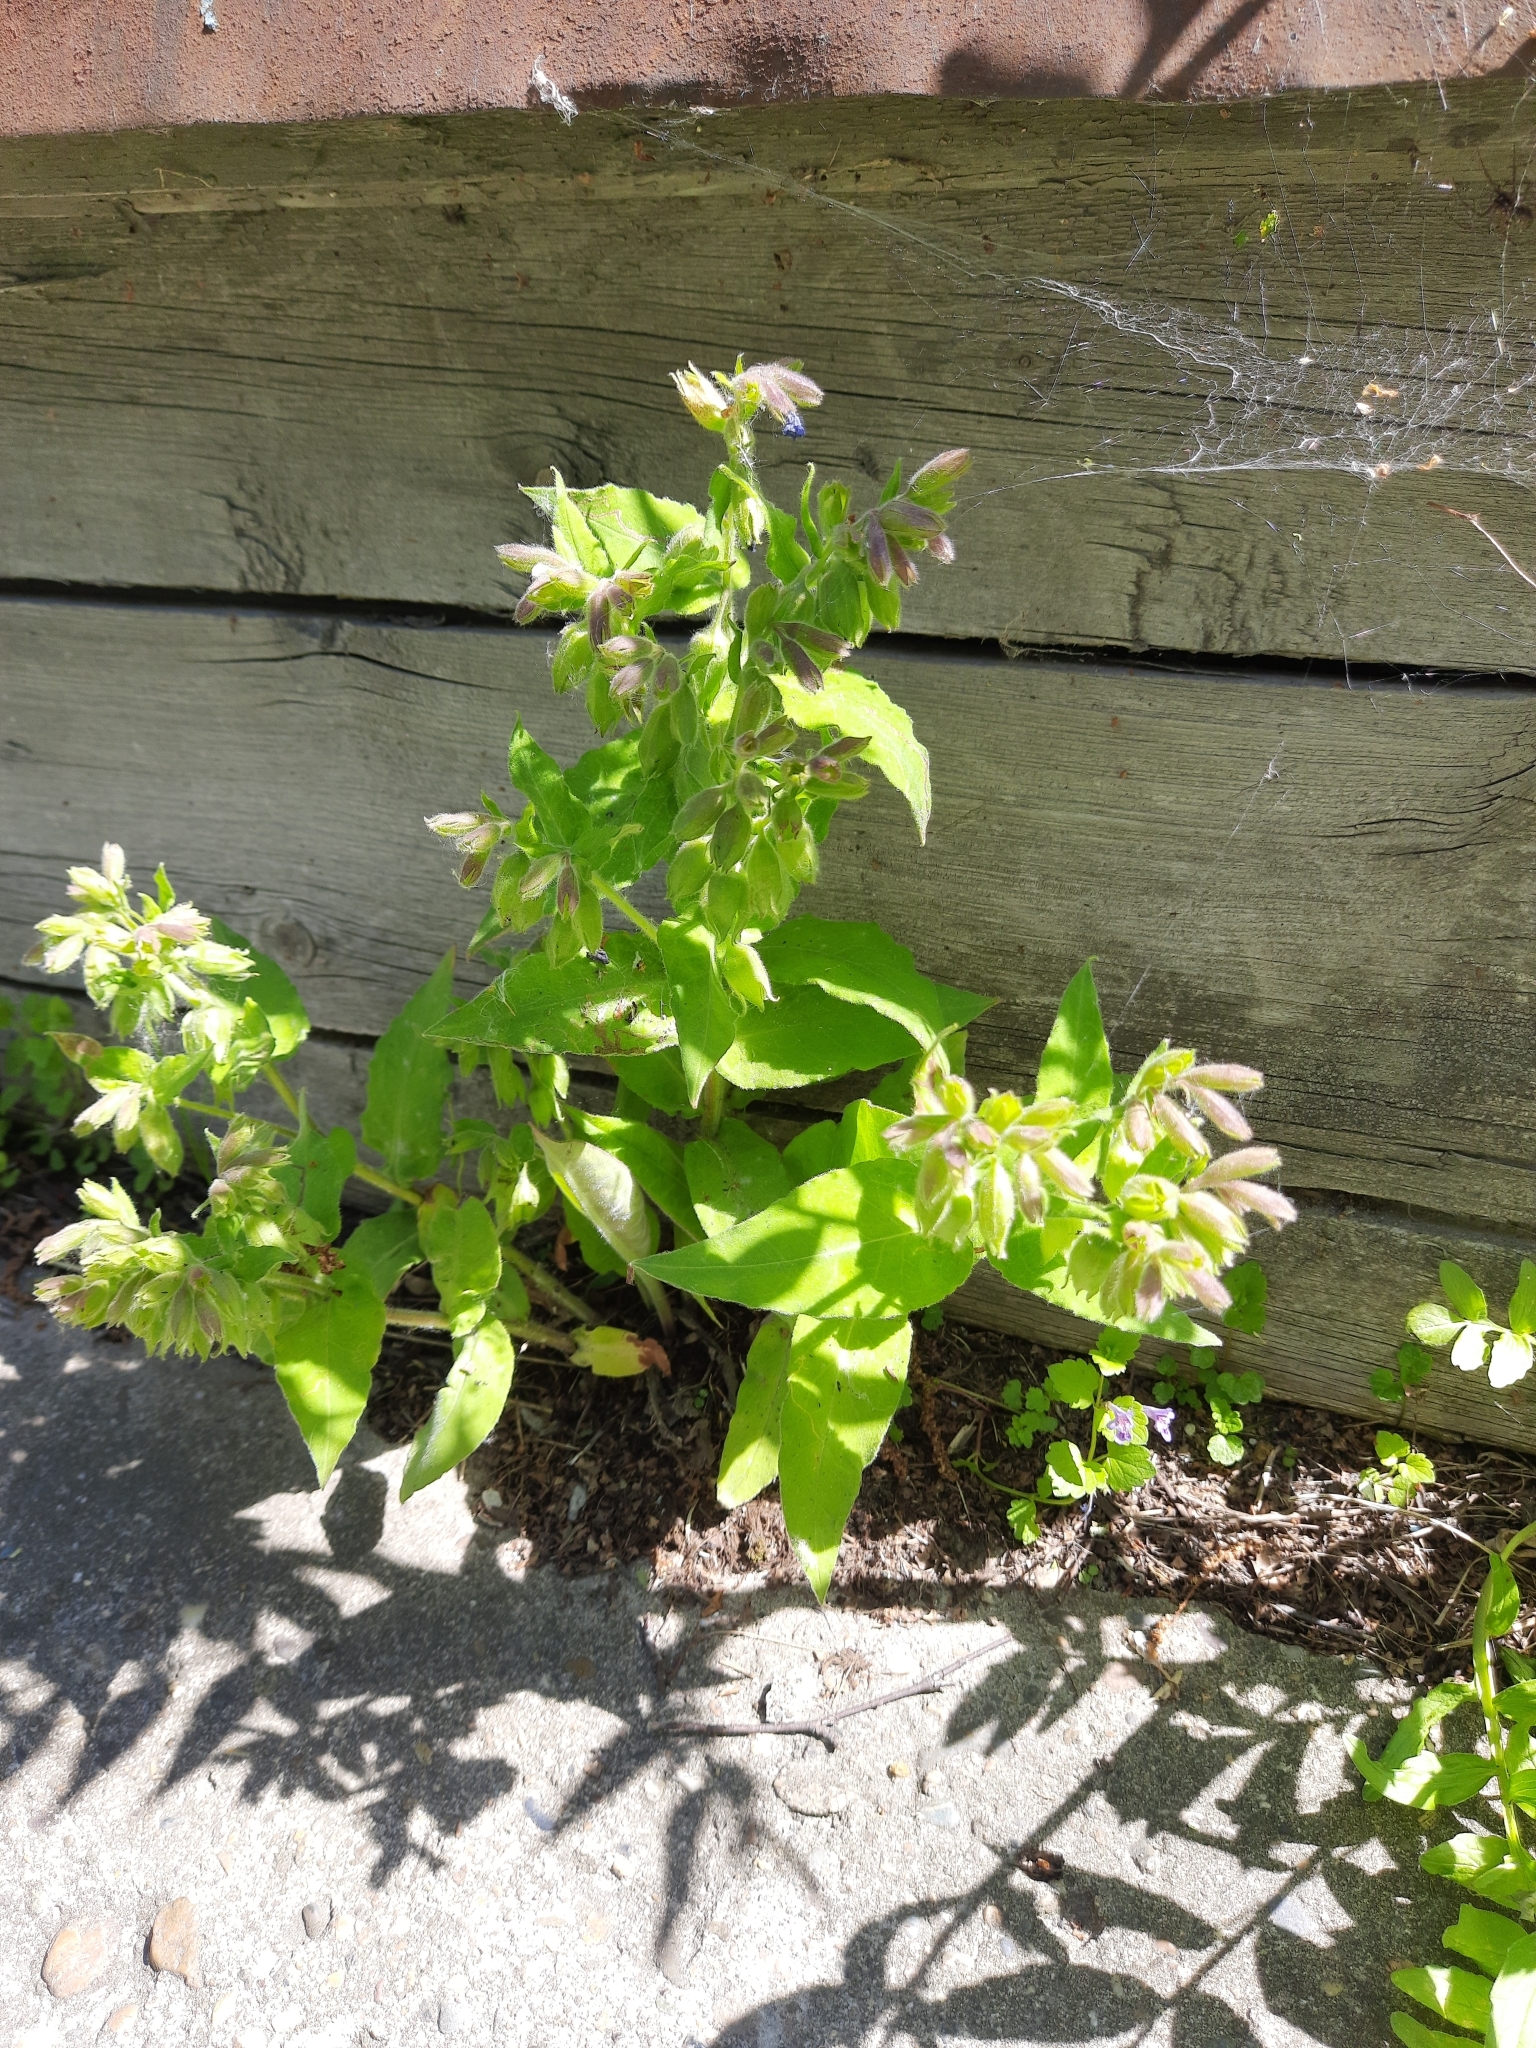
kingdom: Plantae
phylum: Tracheophyta
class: Magnoliopsida
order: Boraginales
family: Boraginaceae
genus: Pulmonaria
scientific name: Pulmonaria mollis
